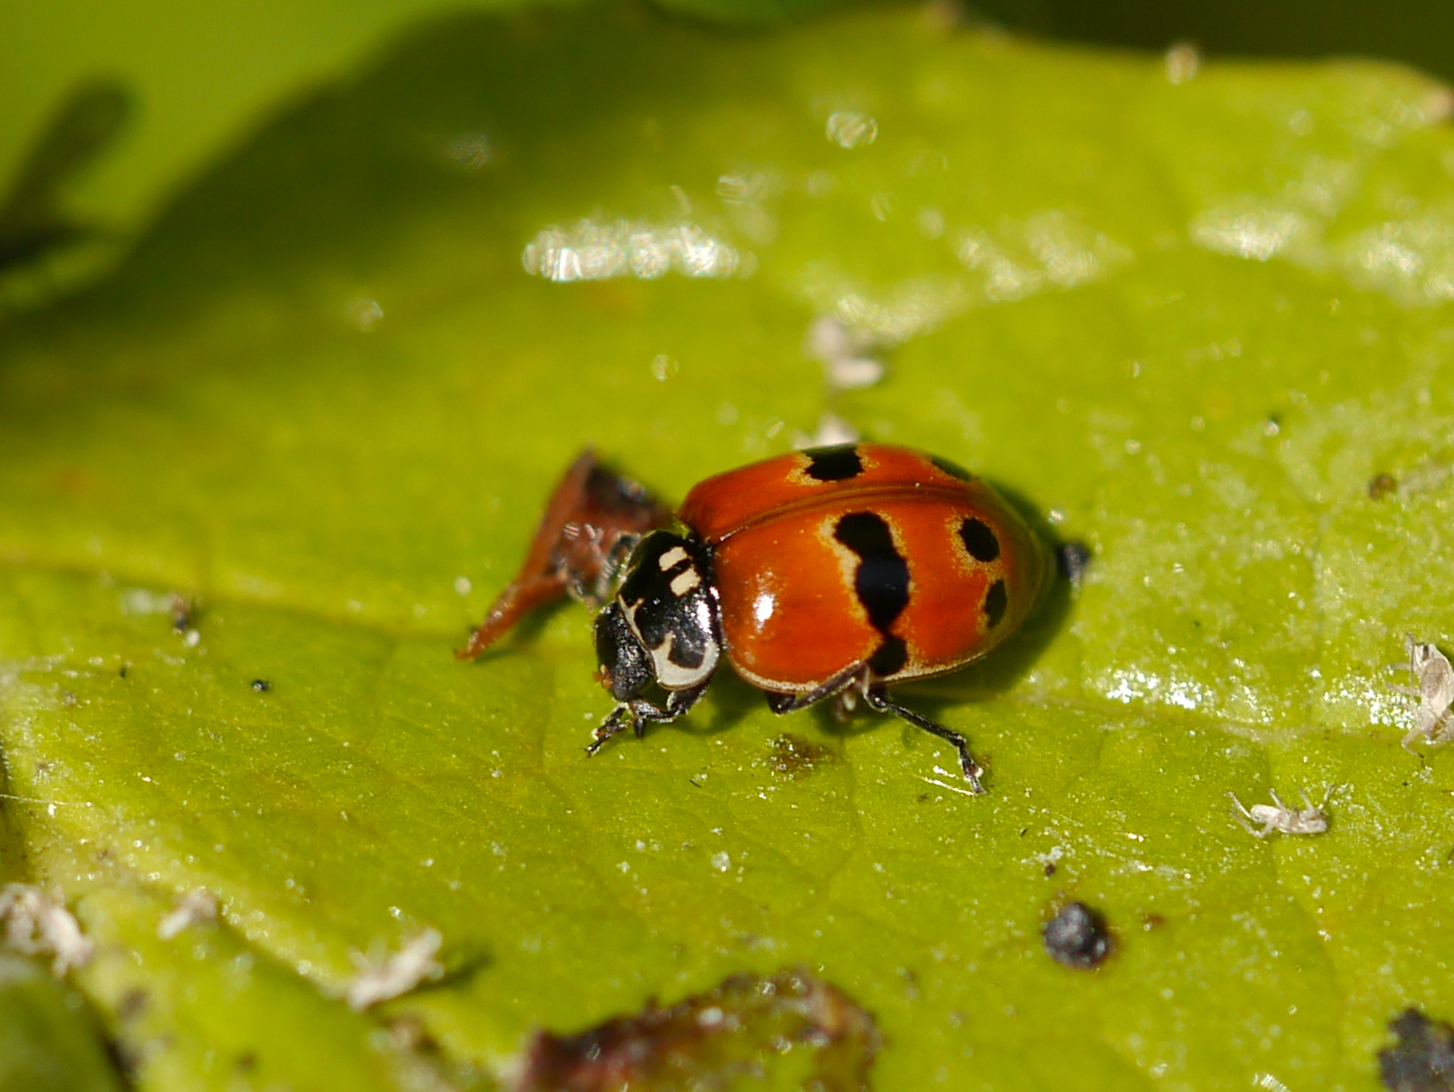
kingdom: Animalia
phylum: Arthropoda
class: Insecta
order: Coleoptera
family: Coccinellidae
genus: Adalia
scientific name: Adalia bipunctata
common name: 2-spot ladybird
